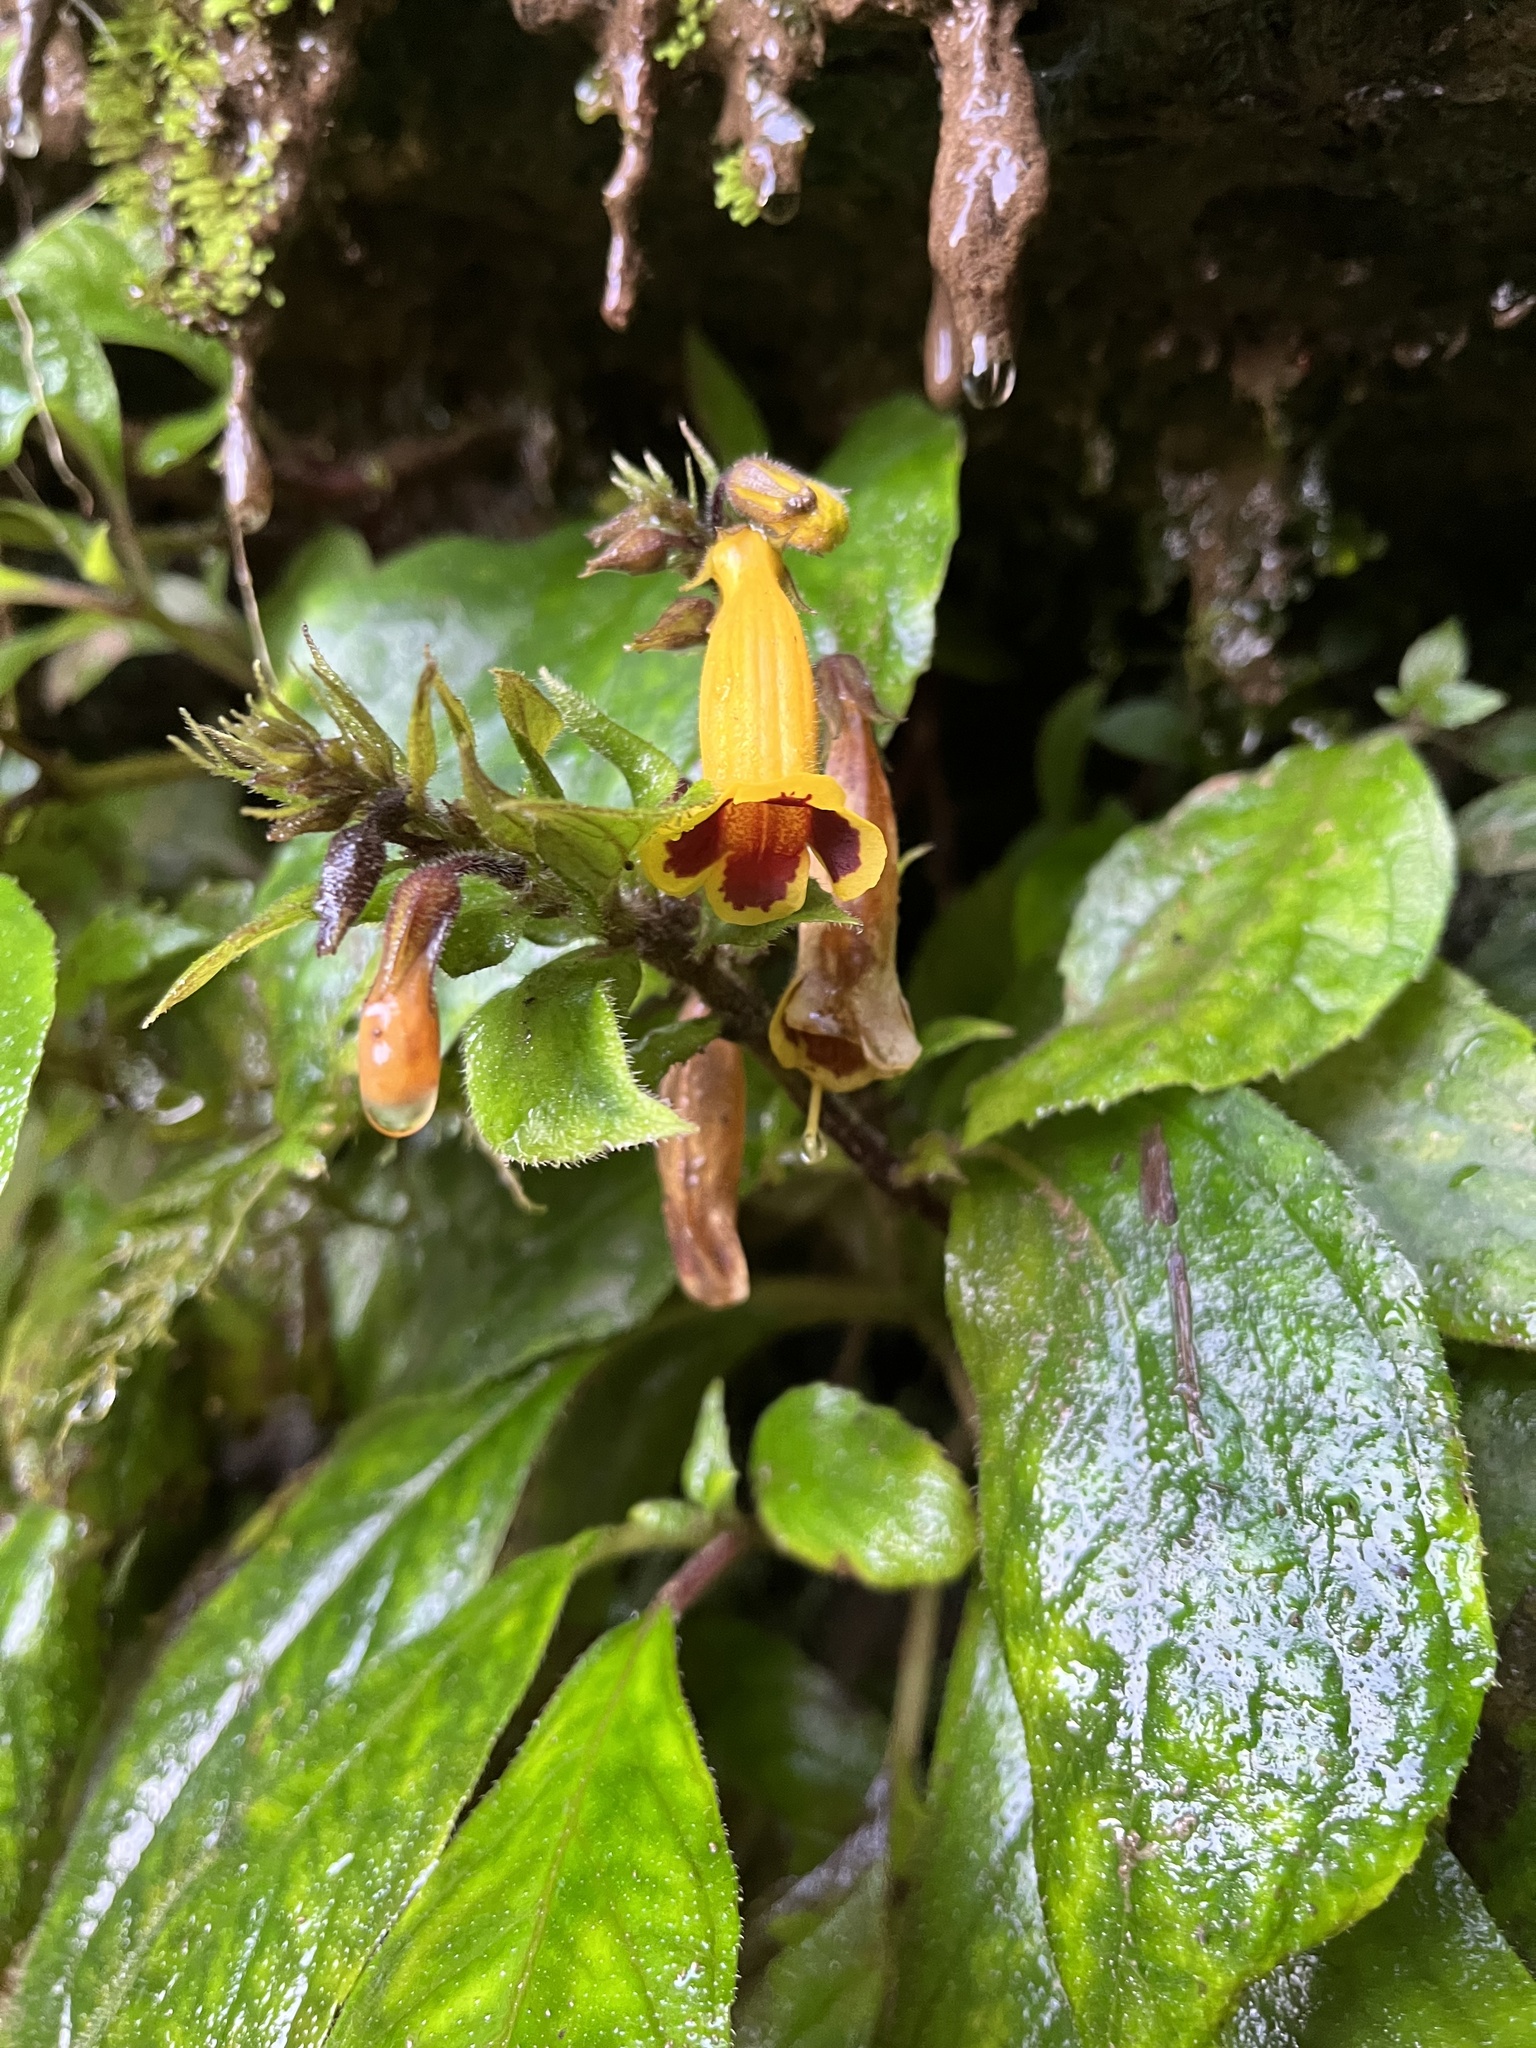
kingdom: Plantae
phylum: Tracheophyta
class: Magnoliopsida
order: Lamiales
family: Gesneriaceae
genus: Titanotrichum
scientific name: Titanotrichum oldhamii
